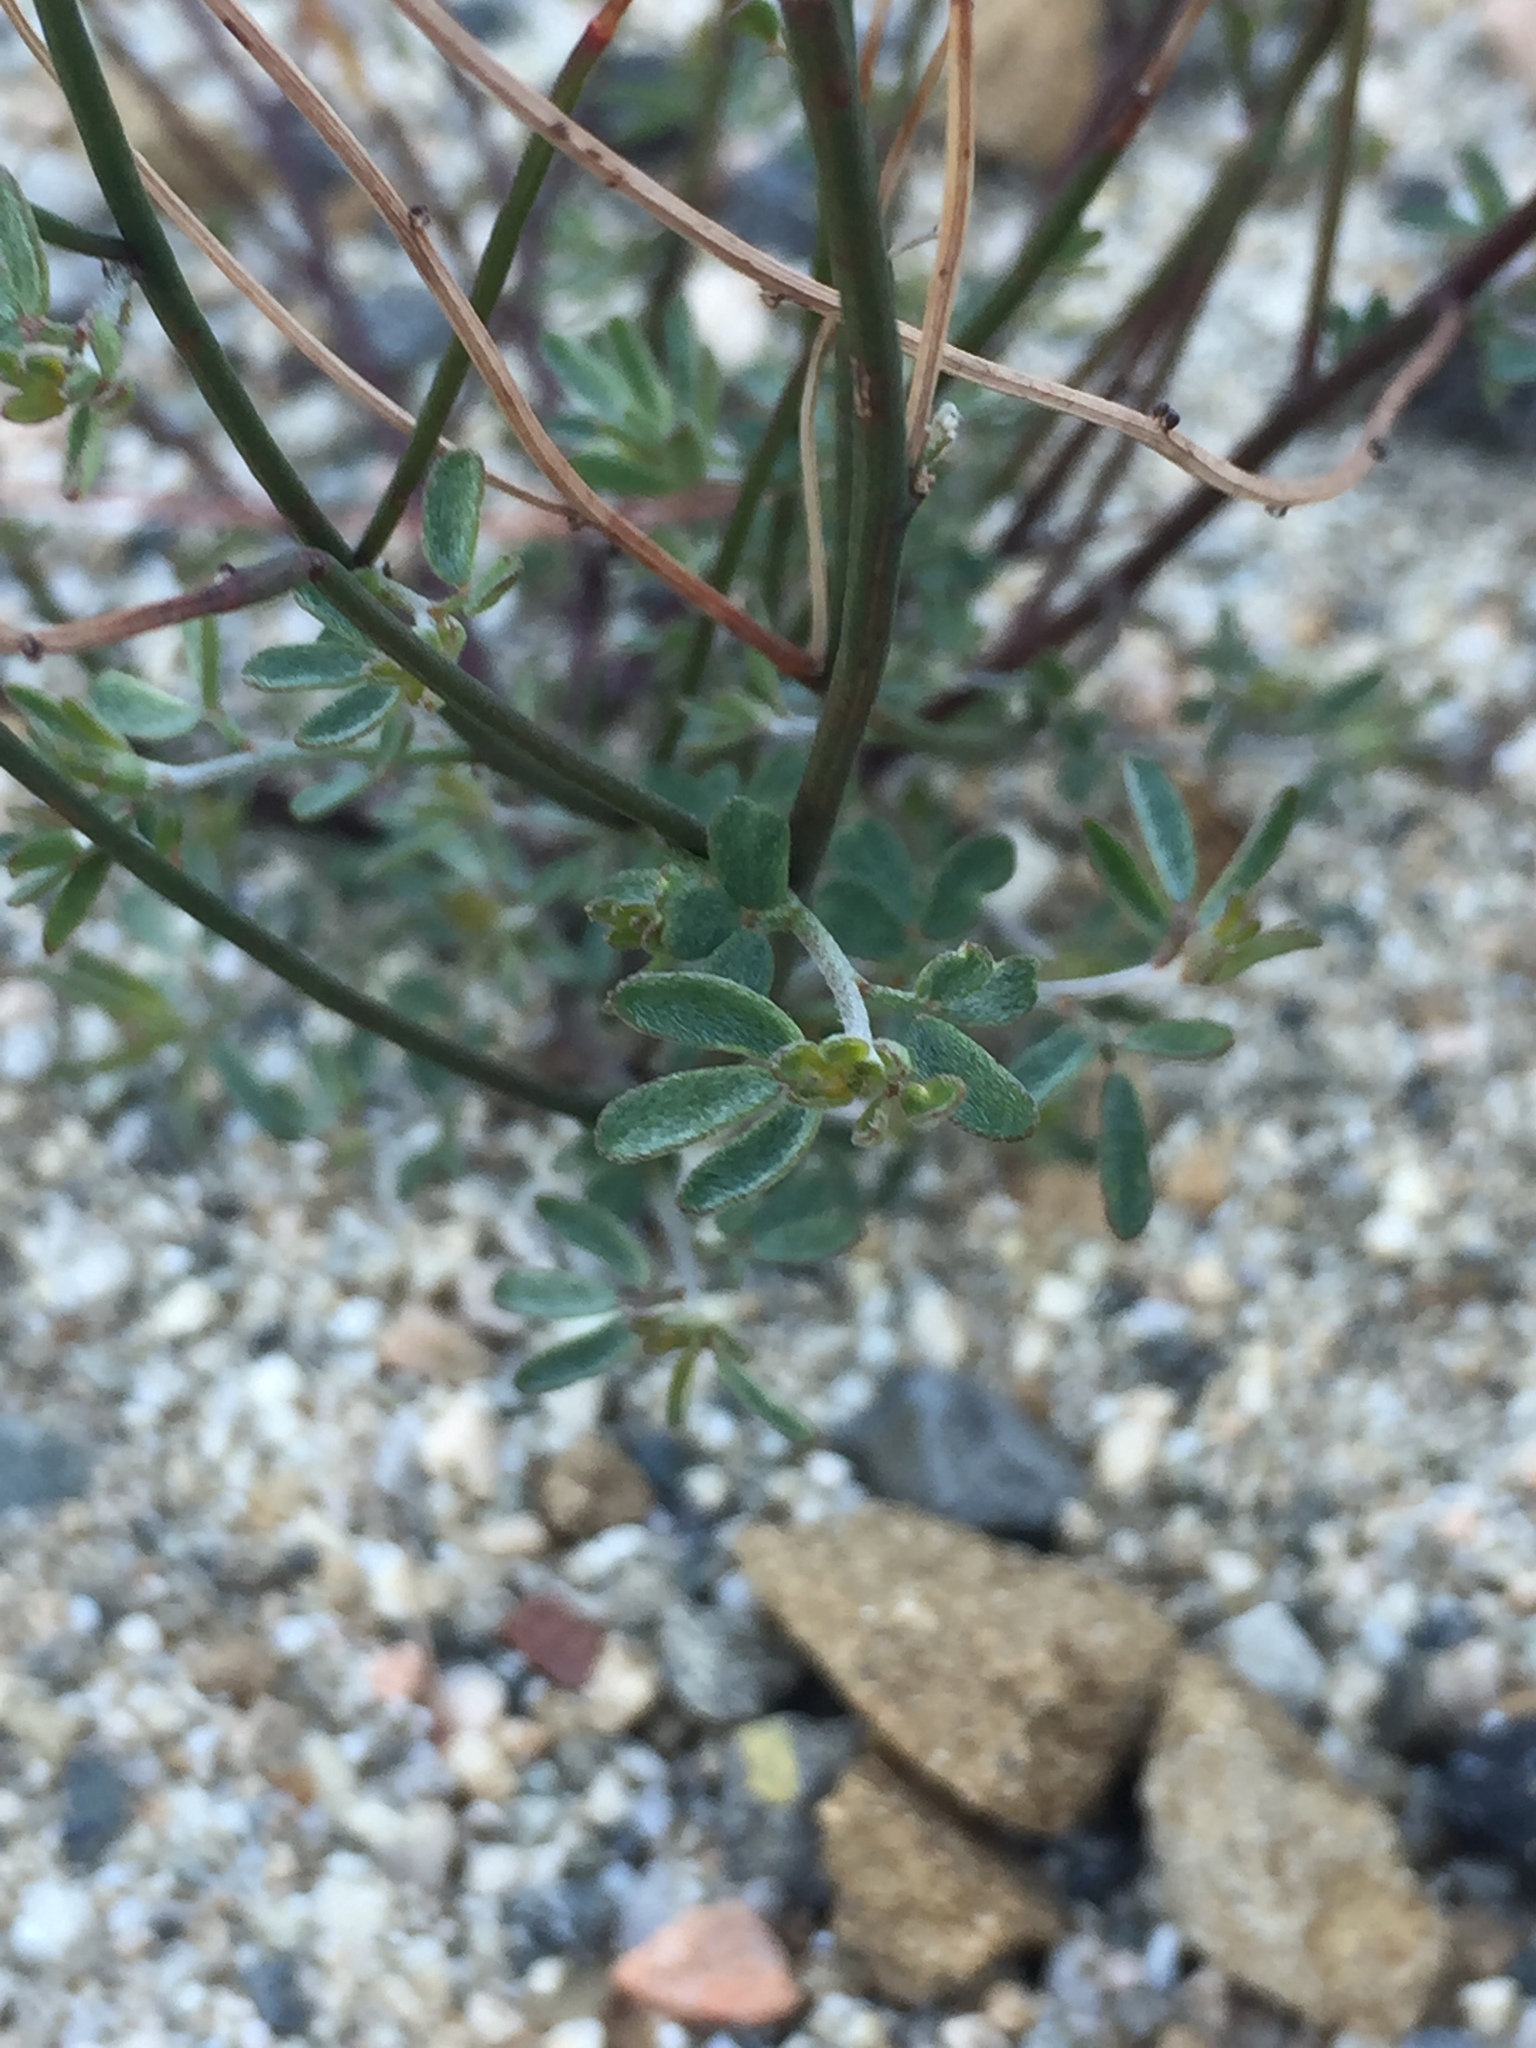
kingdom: Plantae
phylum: Tracheophyta
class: Magnoliopsida
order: Fabales
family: Fabaceae
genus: Acmispon
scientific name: Acmispon glaber
